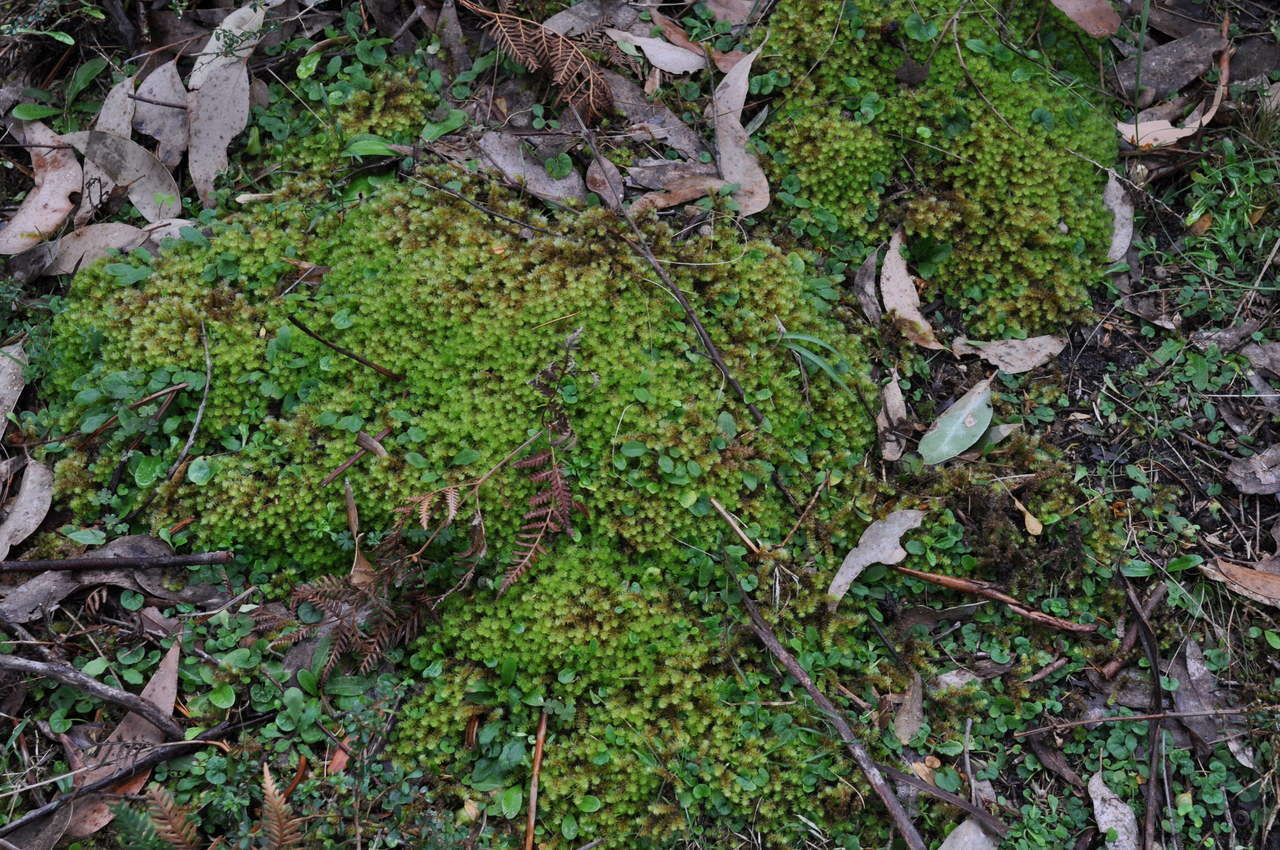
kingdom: Plantae
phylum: Bryophyta
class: Bryopsida
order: Ptychomniales
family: Ptychomniaceae
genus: Ptychomnion
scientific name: Ptychomnion aciculare
